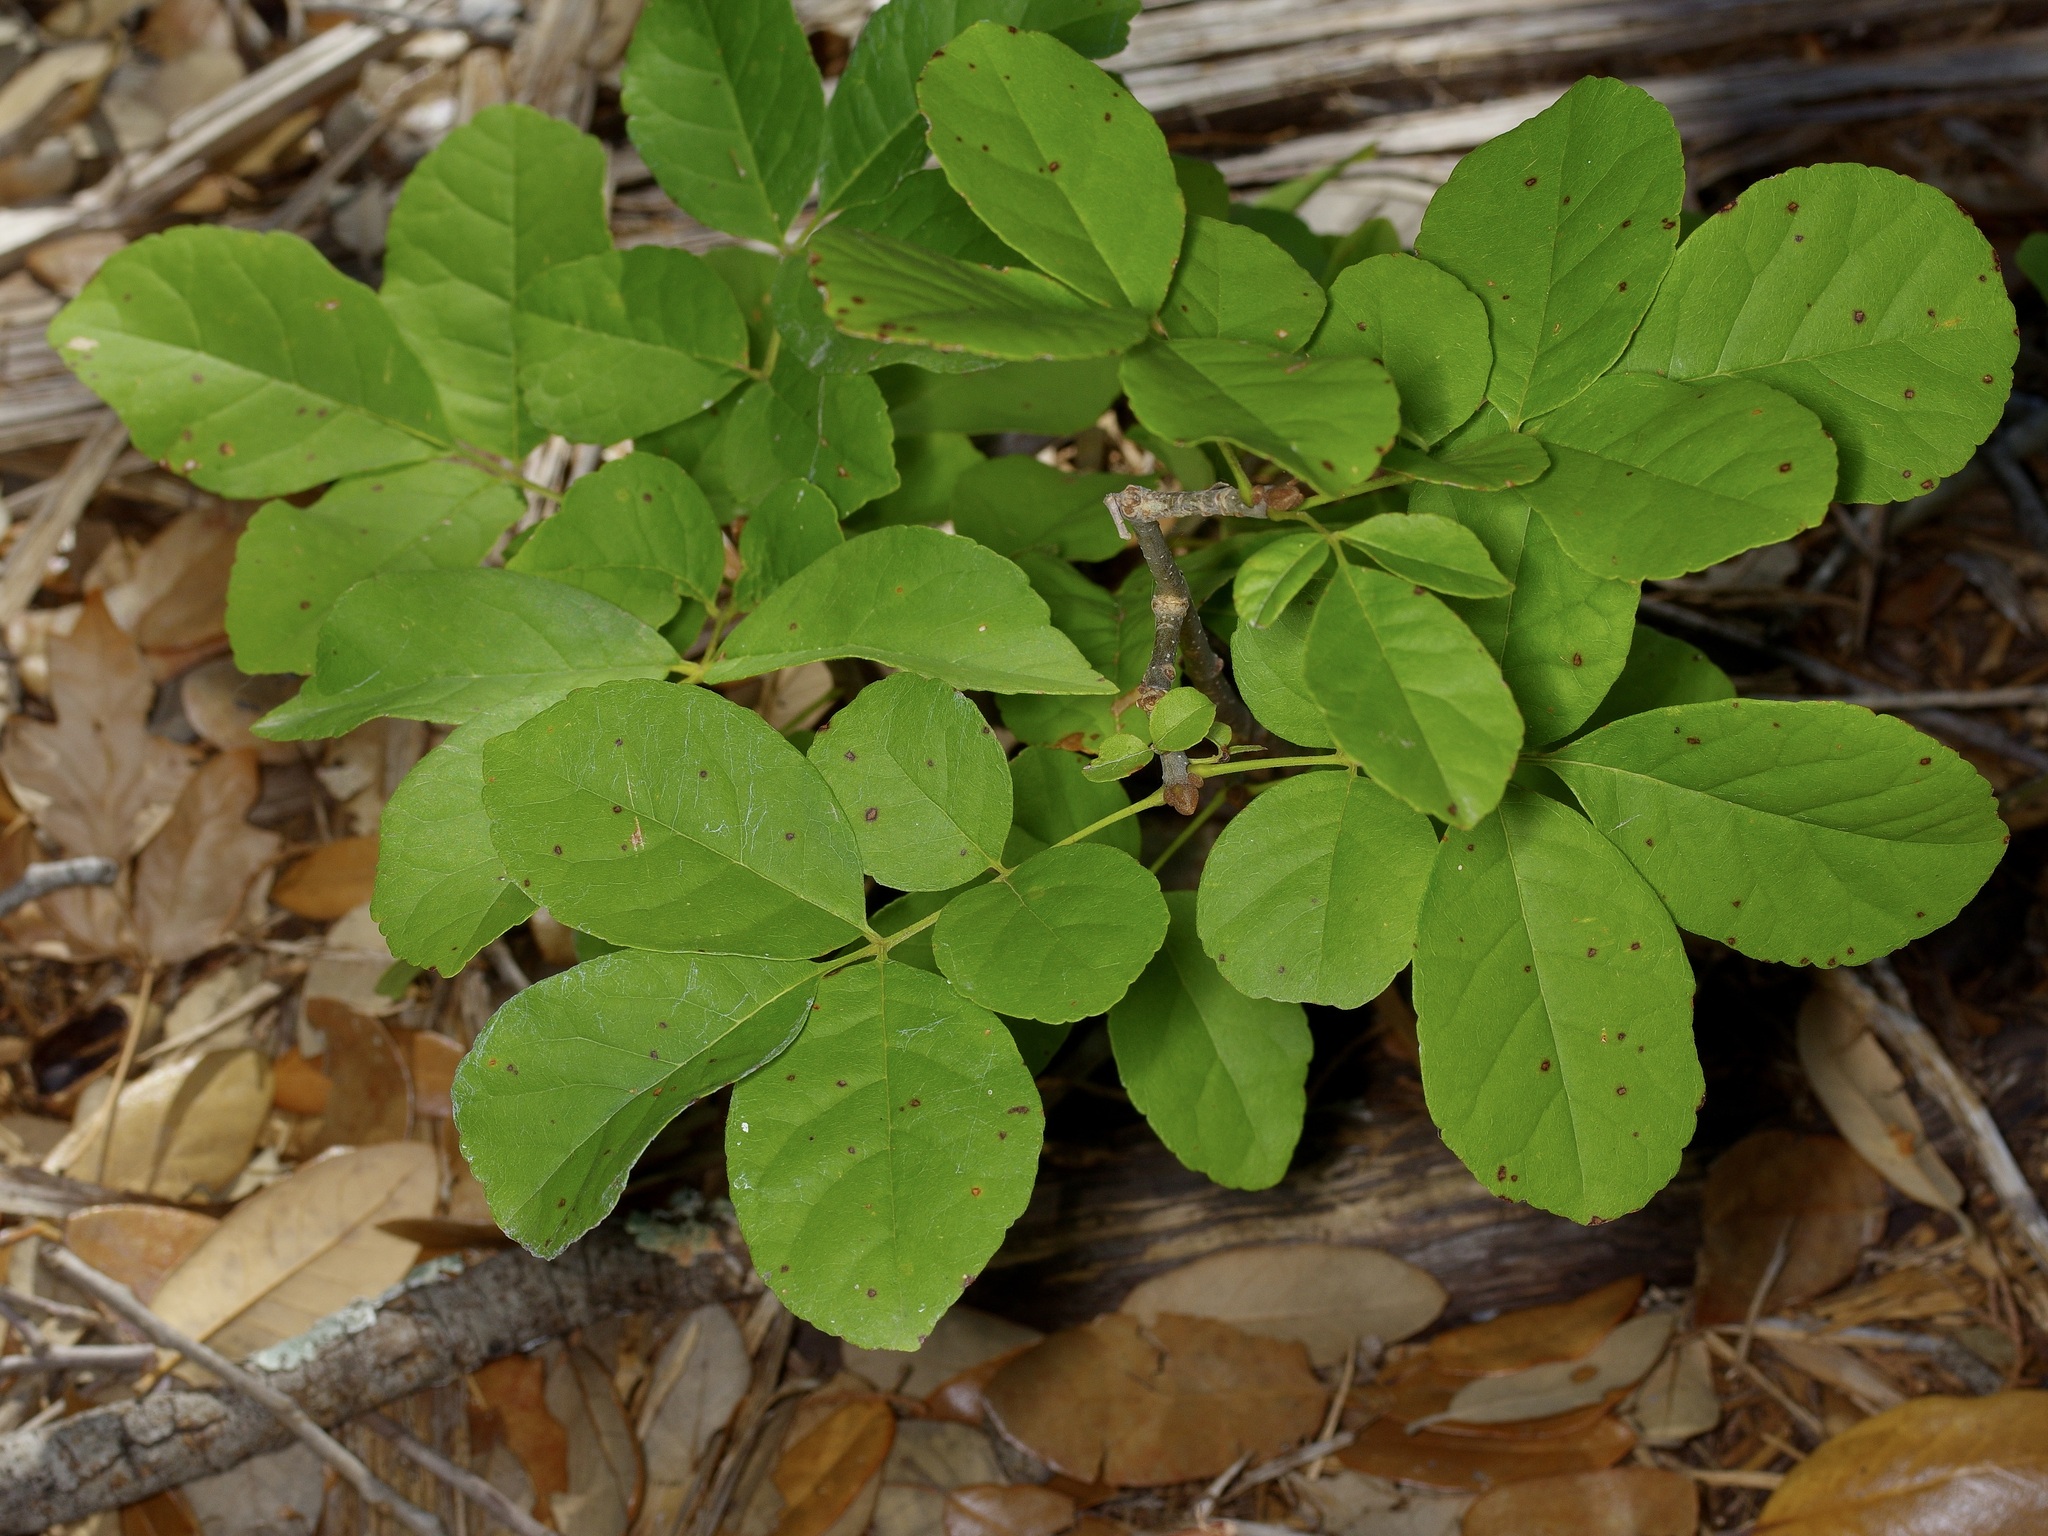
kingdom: Plantae
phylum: Tracheophyta
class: Magnoliopsida
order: Lamiales
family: Oleaceae
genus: Fraxinus
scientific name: Fraxinus albicans
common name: Texas ash
